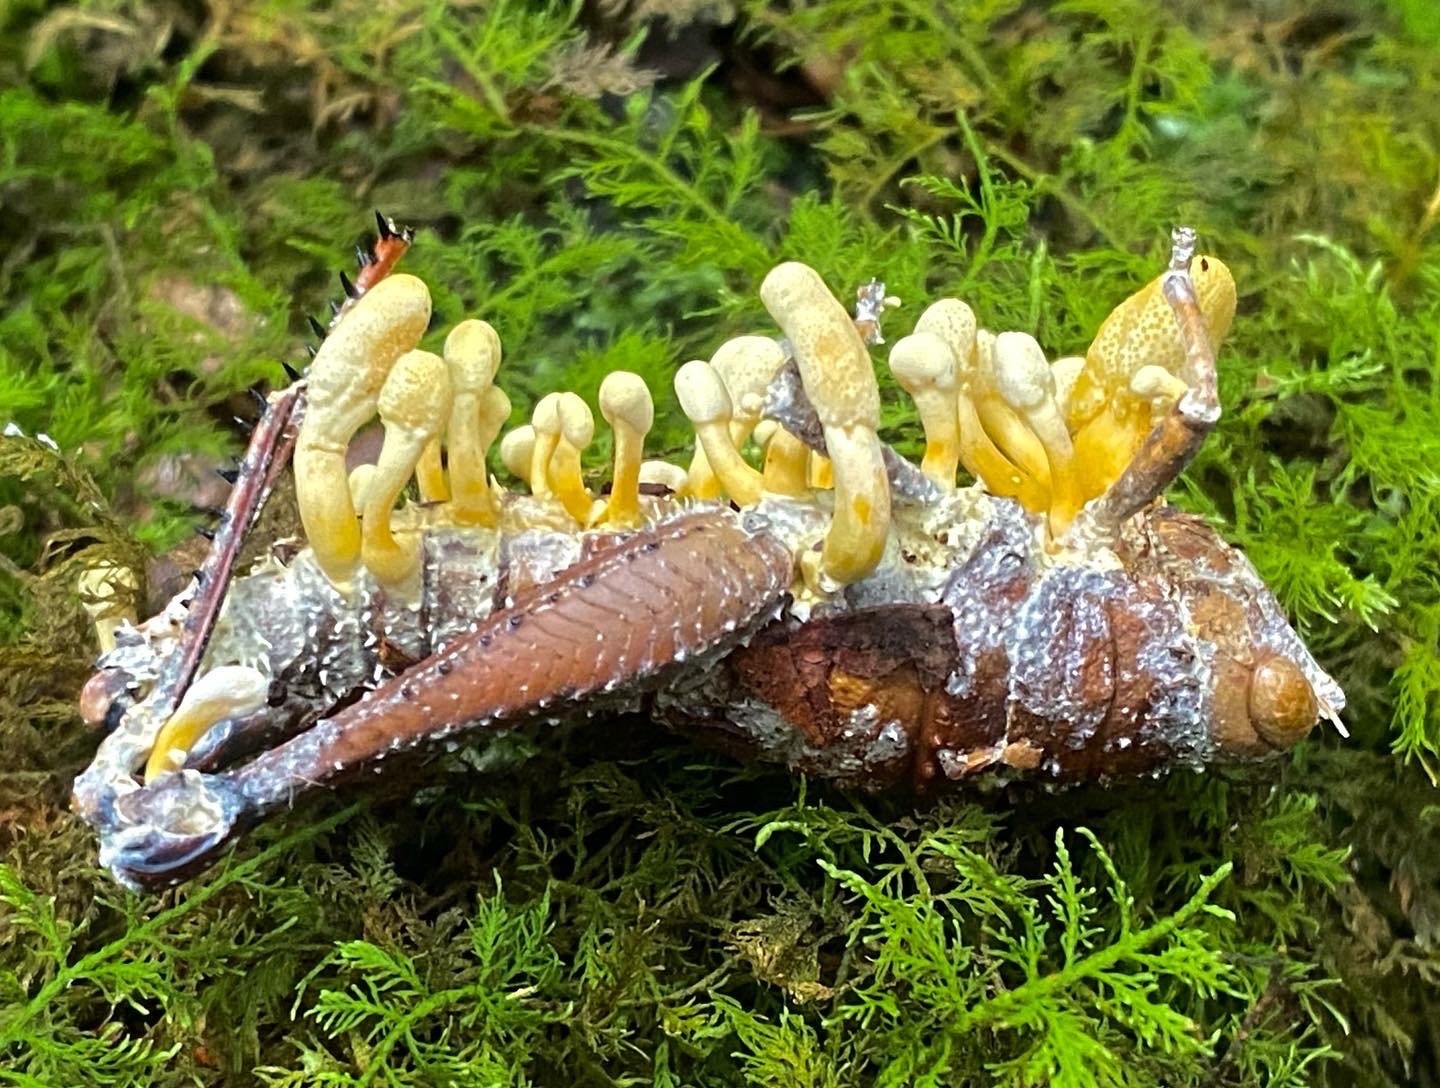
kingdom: Fungi
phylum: Ascomycota
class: Sordariomycetes
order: Hypocreales
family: Cordycipitaceae
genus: Beauveria
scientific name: Beauveria locustiphila
